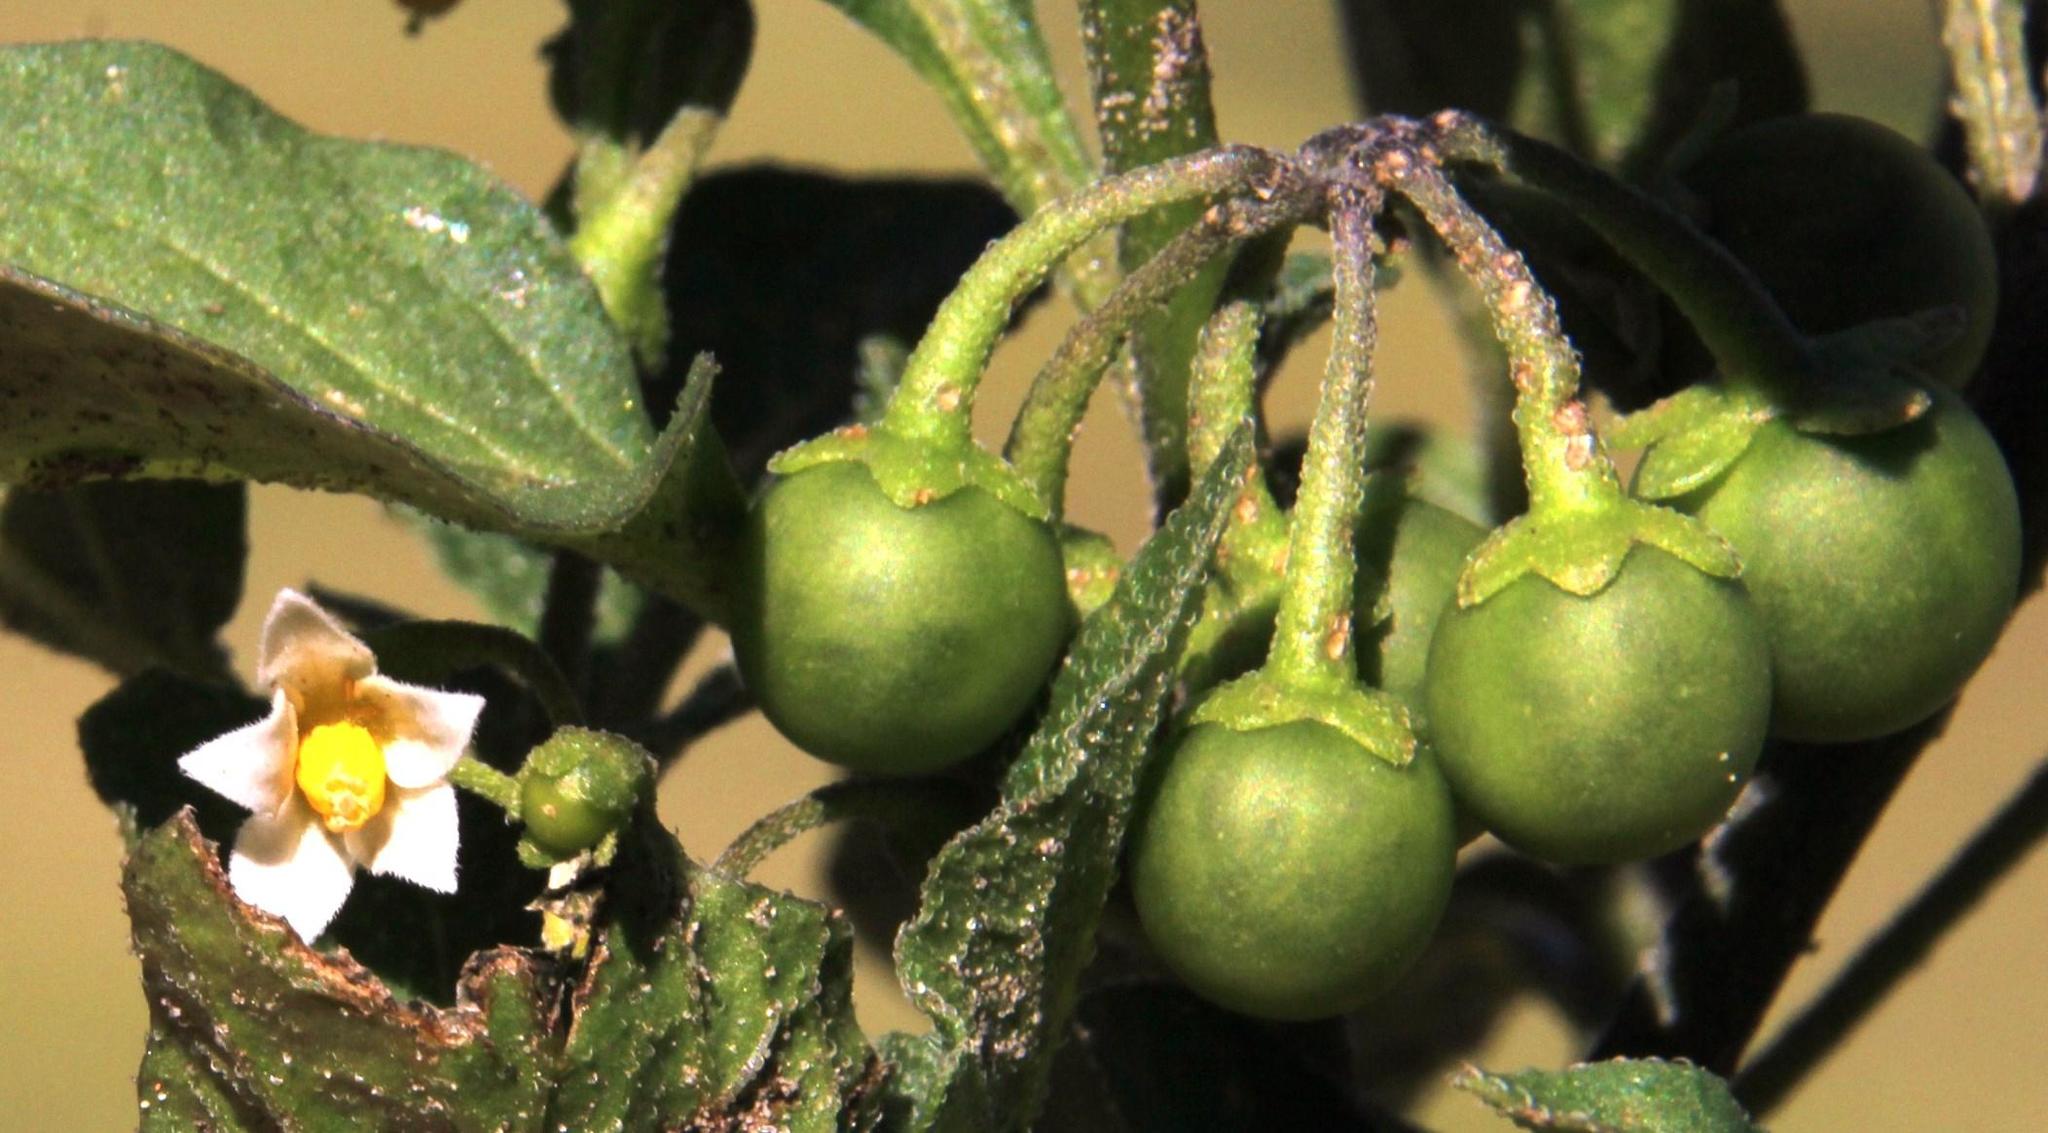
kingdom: Plantae
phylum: Tracheophyta
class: Magnoliopsida
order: Solanales
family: Solanaceae
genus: Solanum
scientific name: Solanum nigrum
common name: Black nightshade
